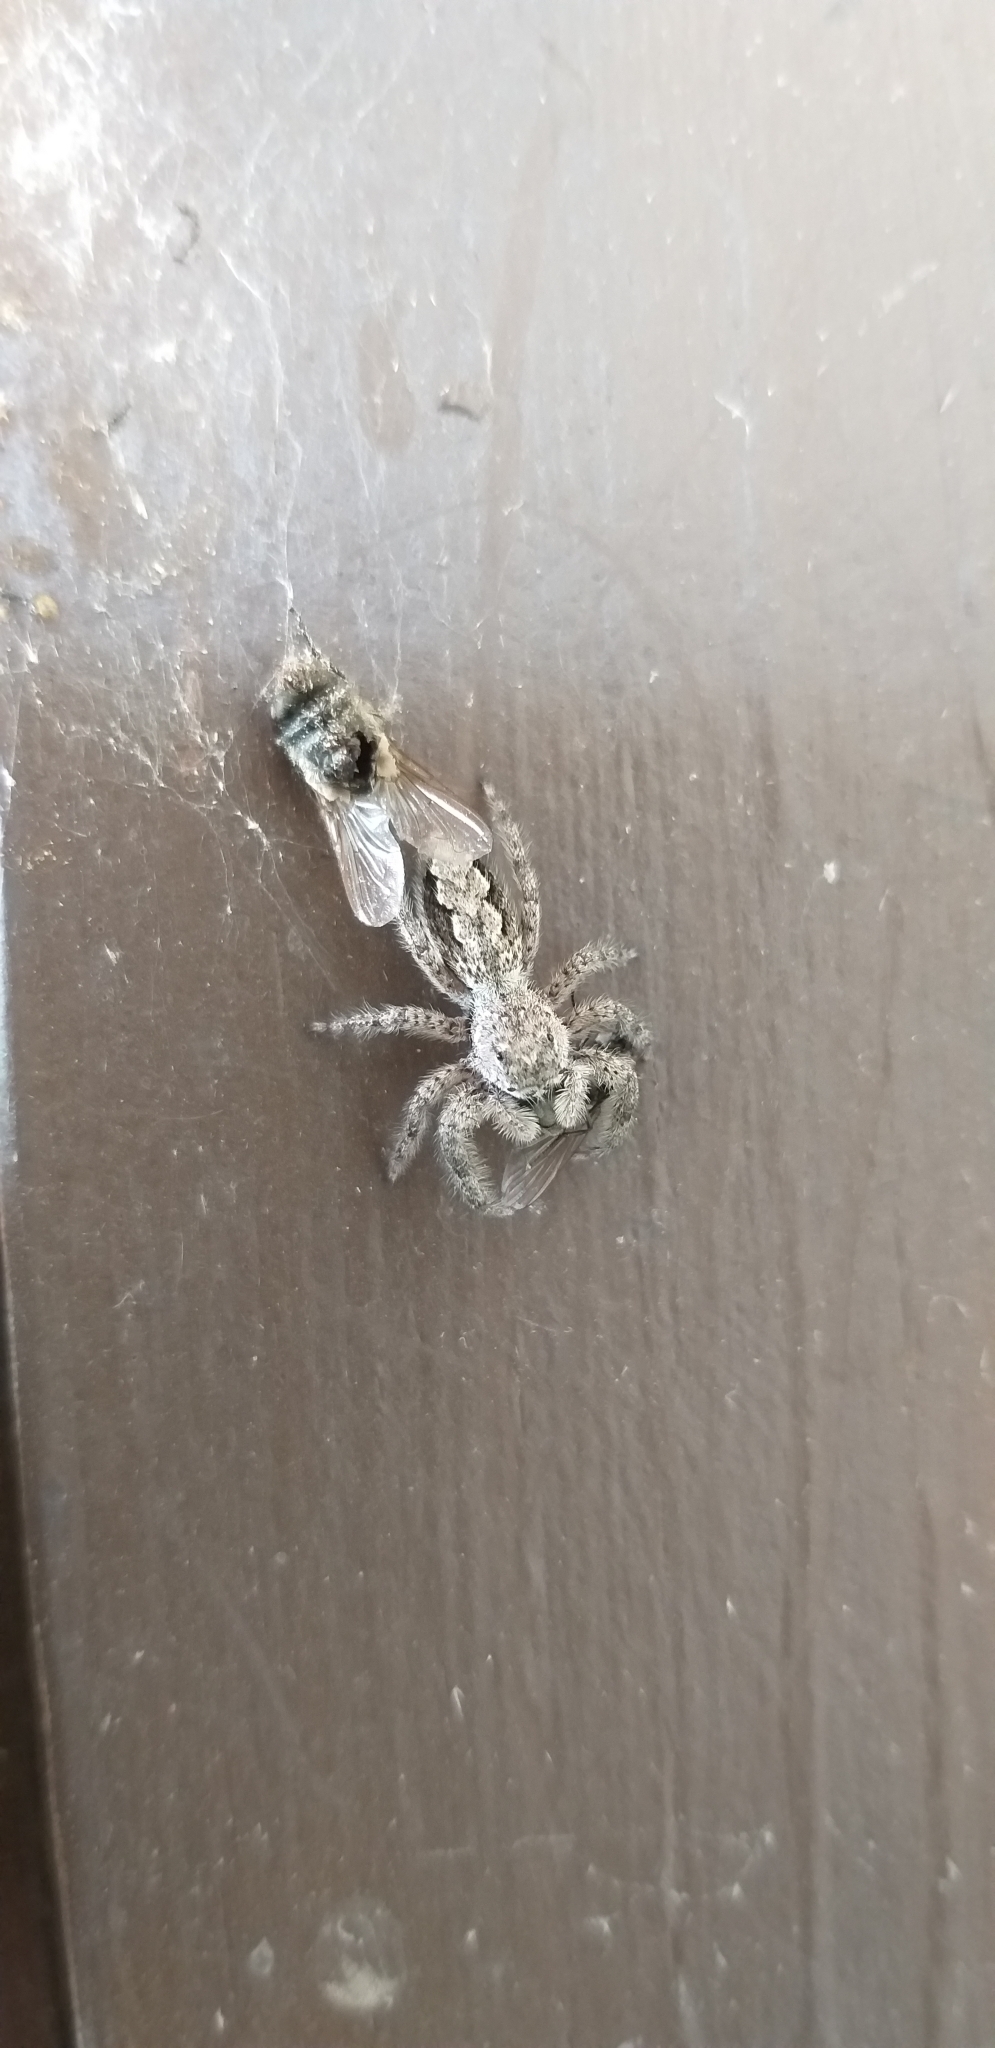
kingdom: Animalia
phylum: Arthropoda
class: Arachnida
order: Araneae
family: Salticidae
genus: Platycryptus
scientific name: Platycryptus undatus
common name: Tan jumping spider
